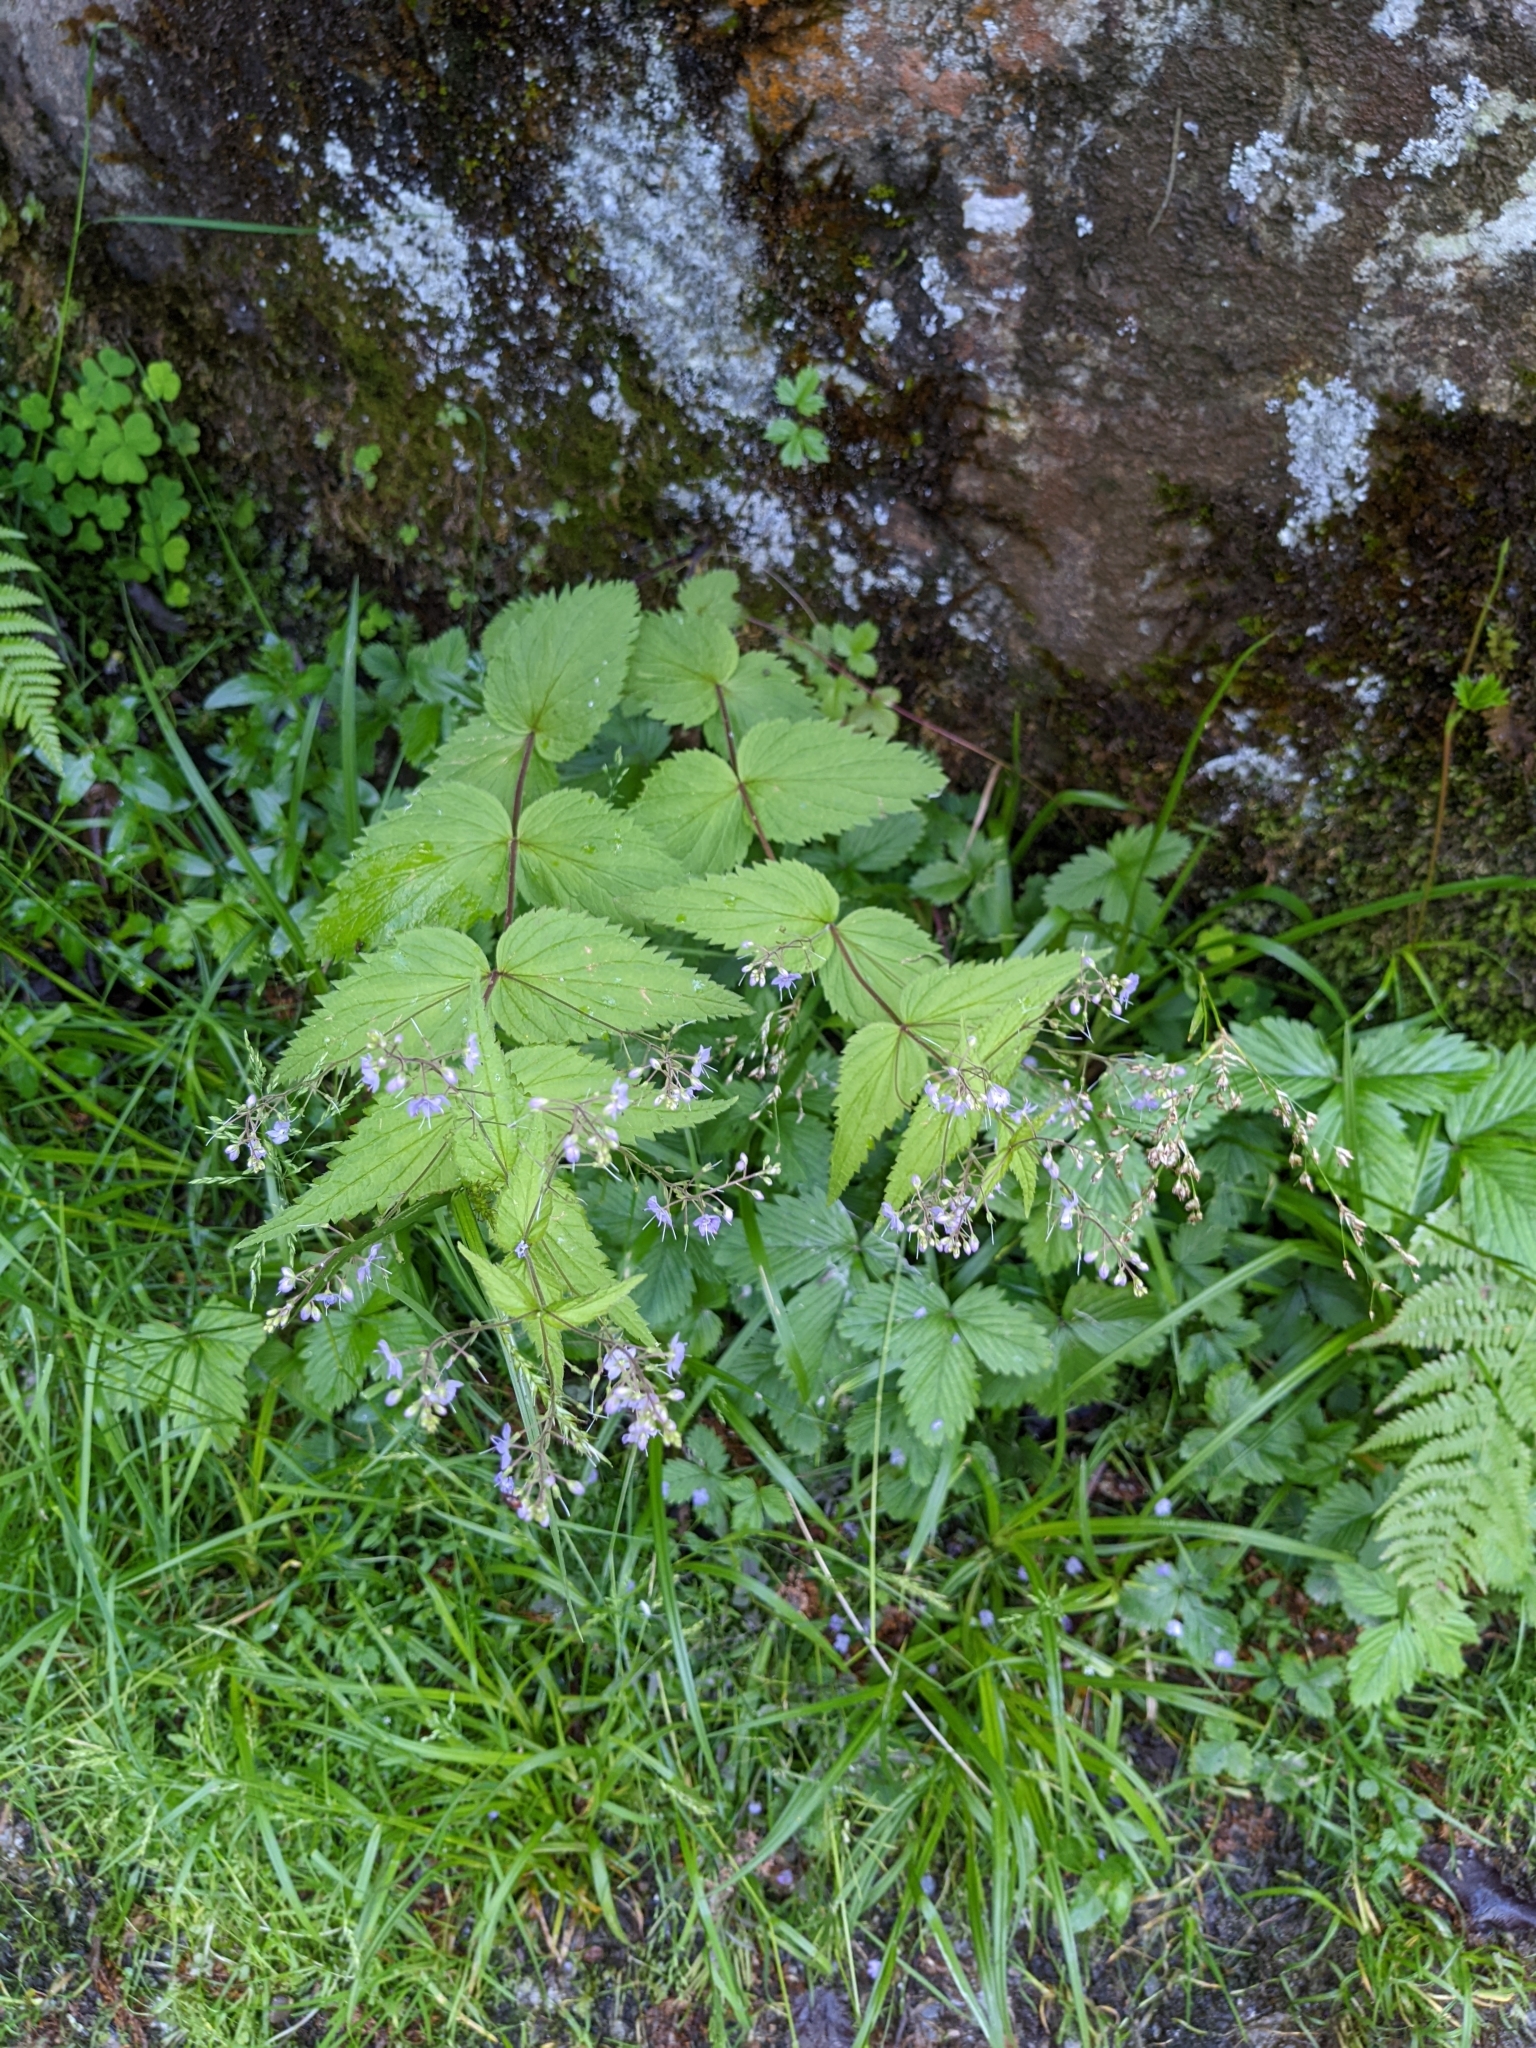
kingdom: Plantae
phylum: Tracheophyta
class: Magnoliopsida
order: Lamiales
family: Plantaginaceae
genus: Veronica
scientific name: Veronica urticifolia
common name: Nettle-leaf speedwell
